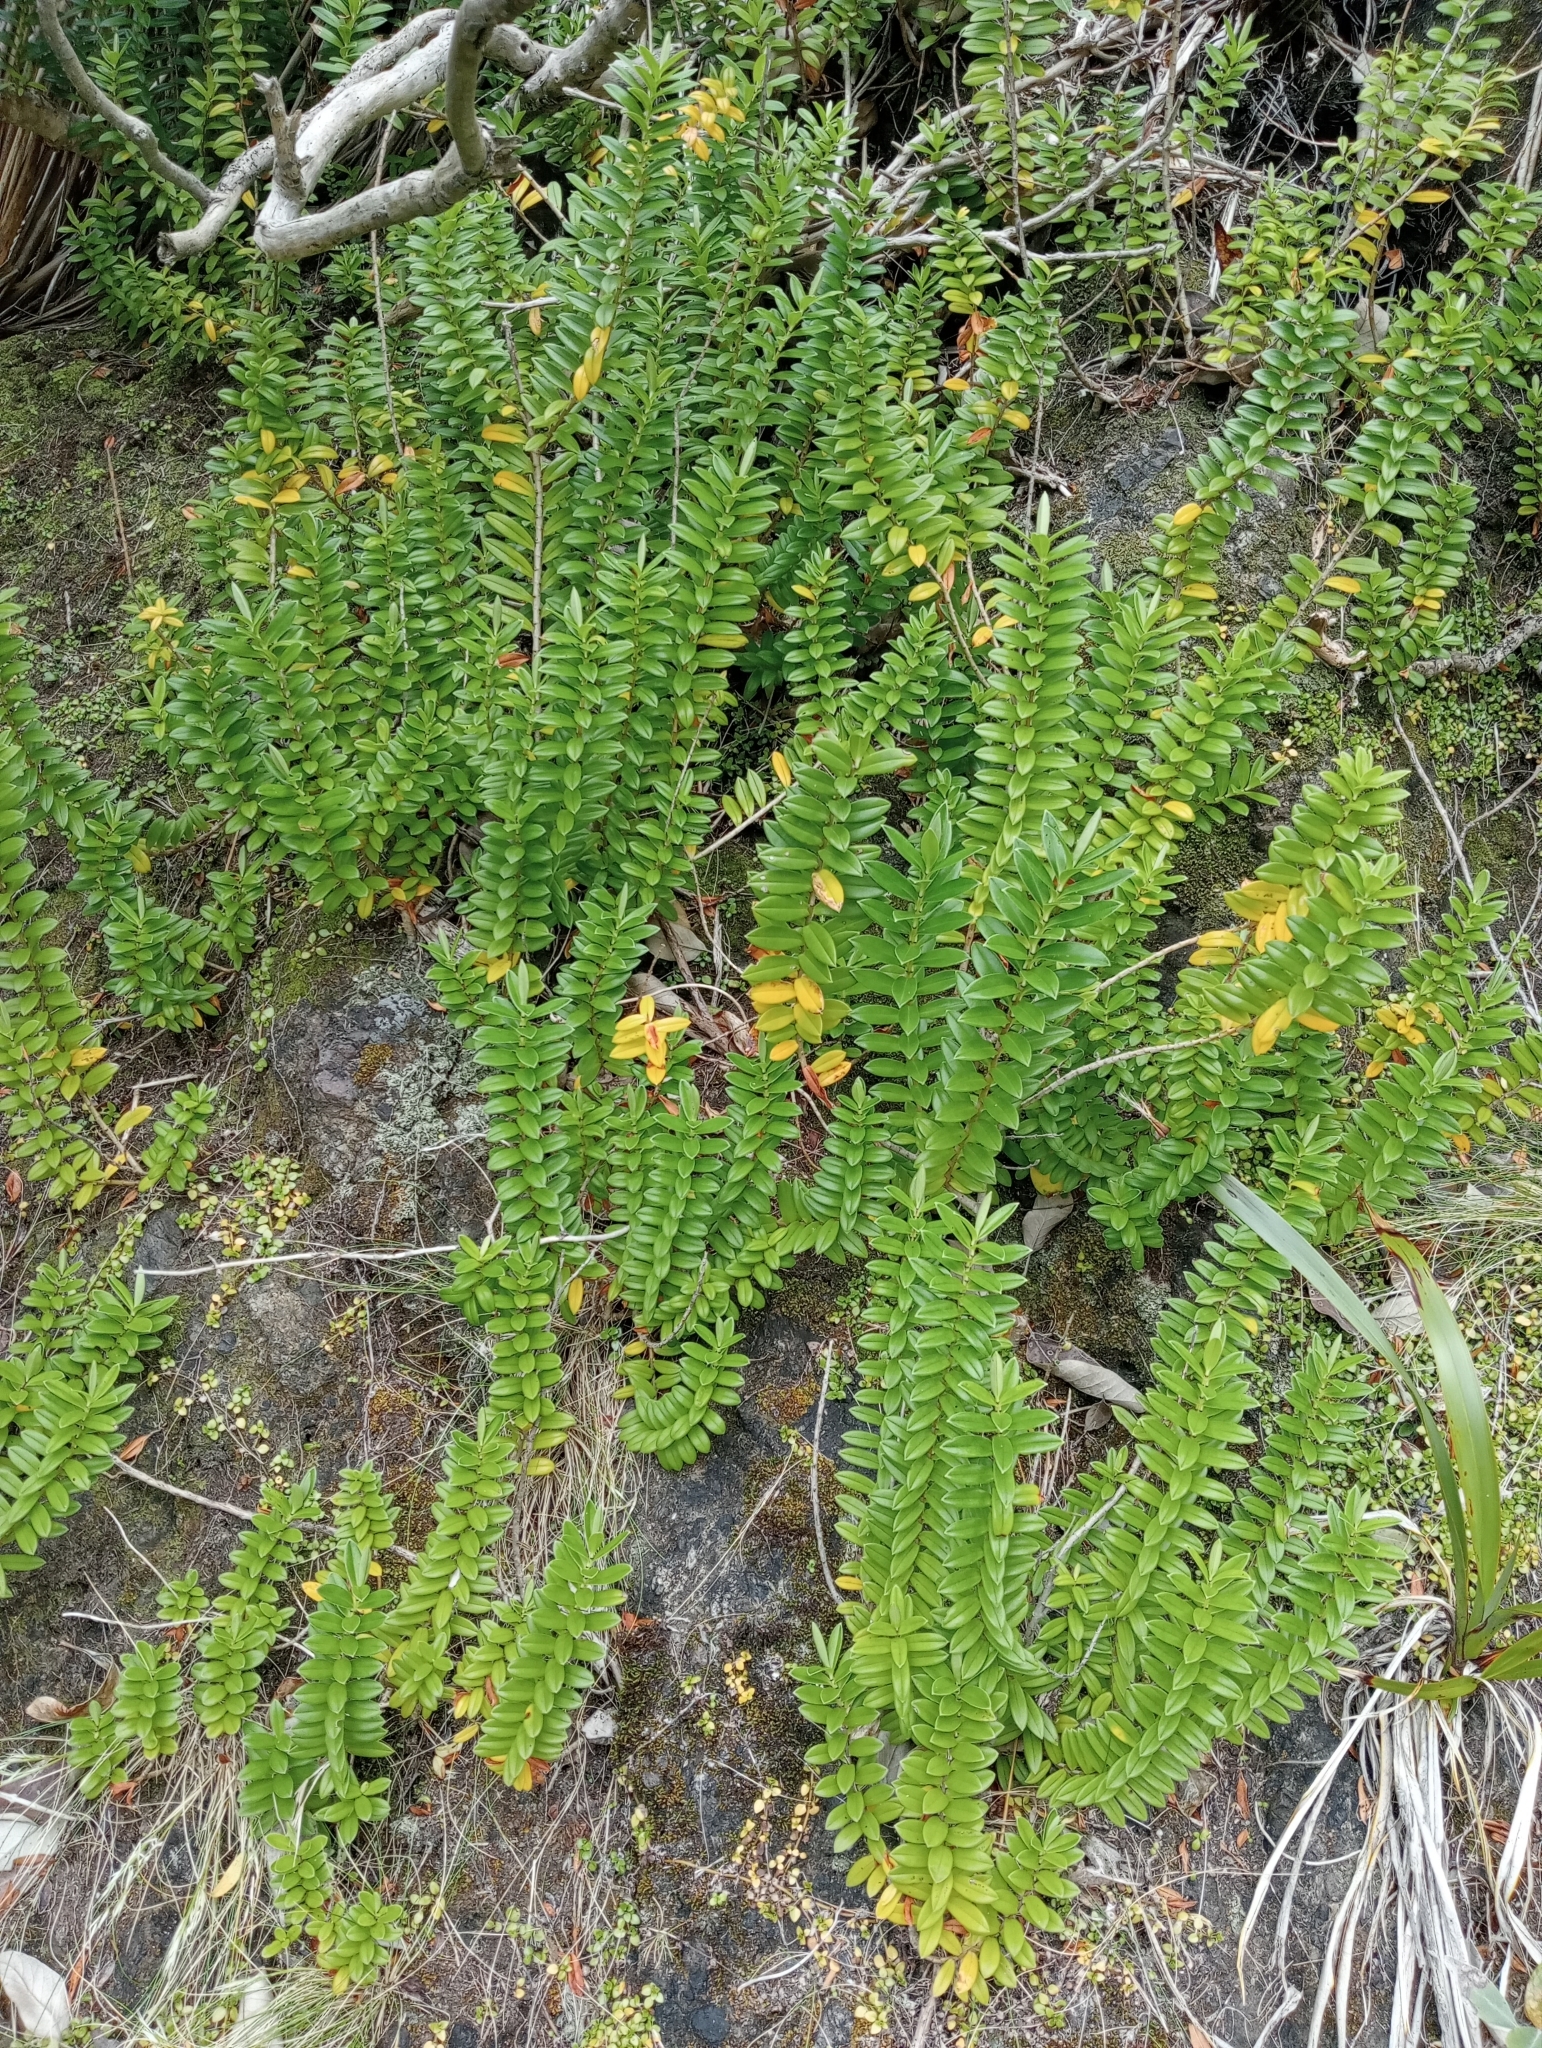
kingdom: Plantae
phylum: Tracheophyta
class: Magnoliopsida
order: Lamiales
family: Plantaginaceae
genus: Veronica
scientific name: Veronica elliptica
